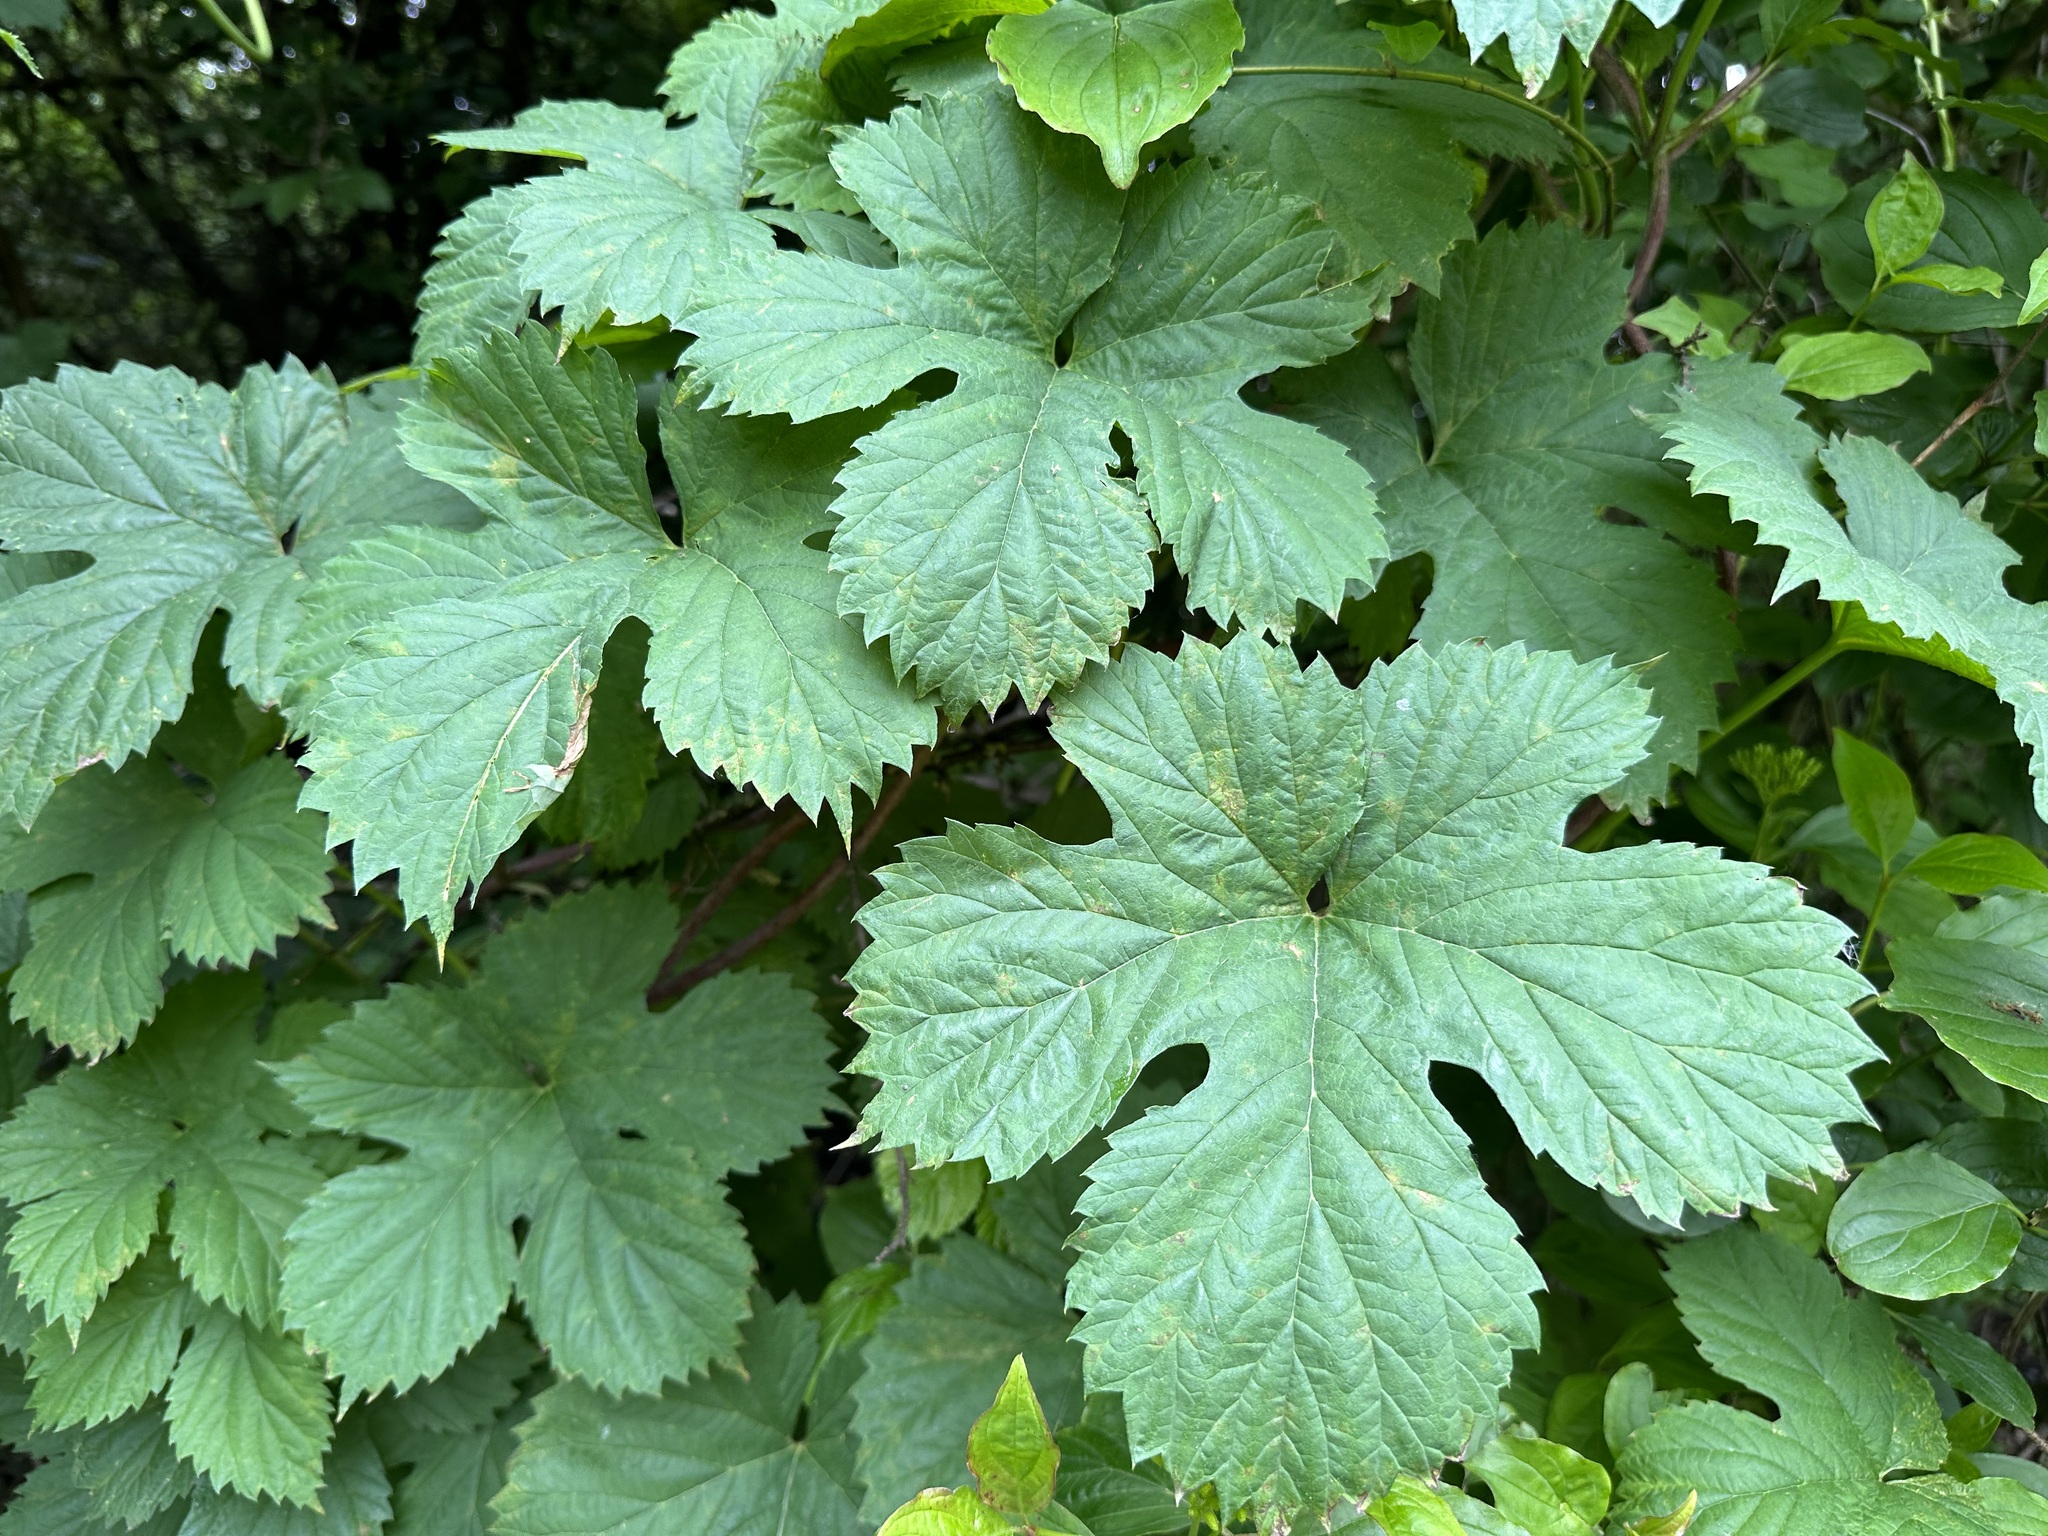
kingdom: Plantae
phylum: Tracheophyta
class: Magnoliopsida
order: Rosales
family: Cannabaceae
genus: Humulus
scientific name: Humulus lupulus
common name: Hop
